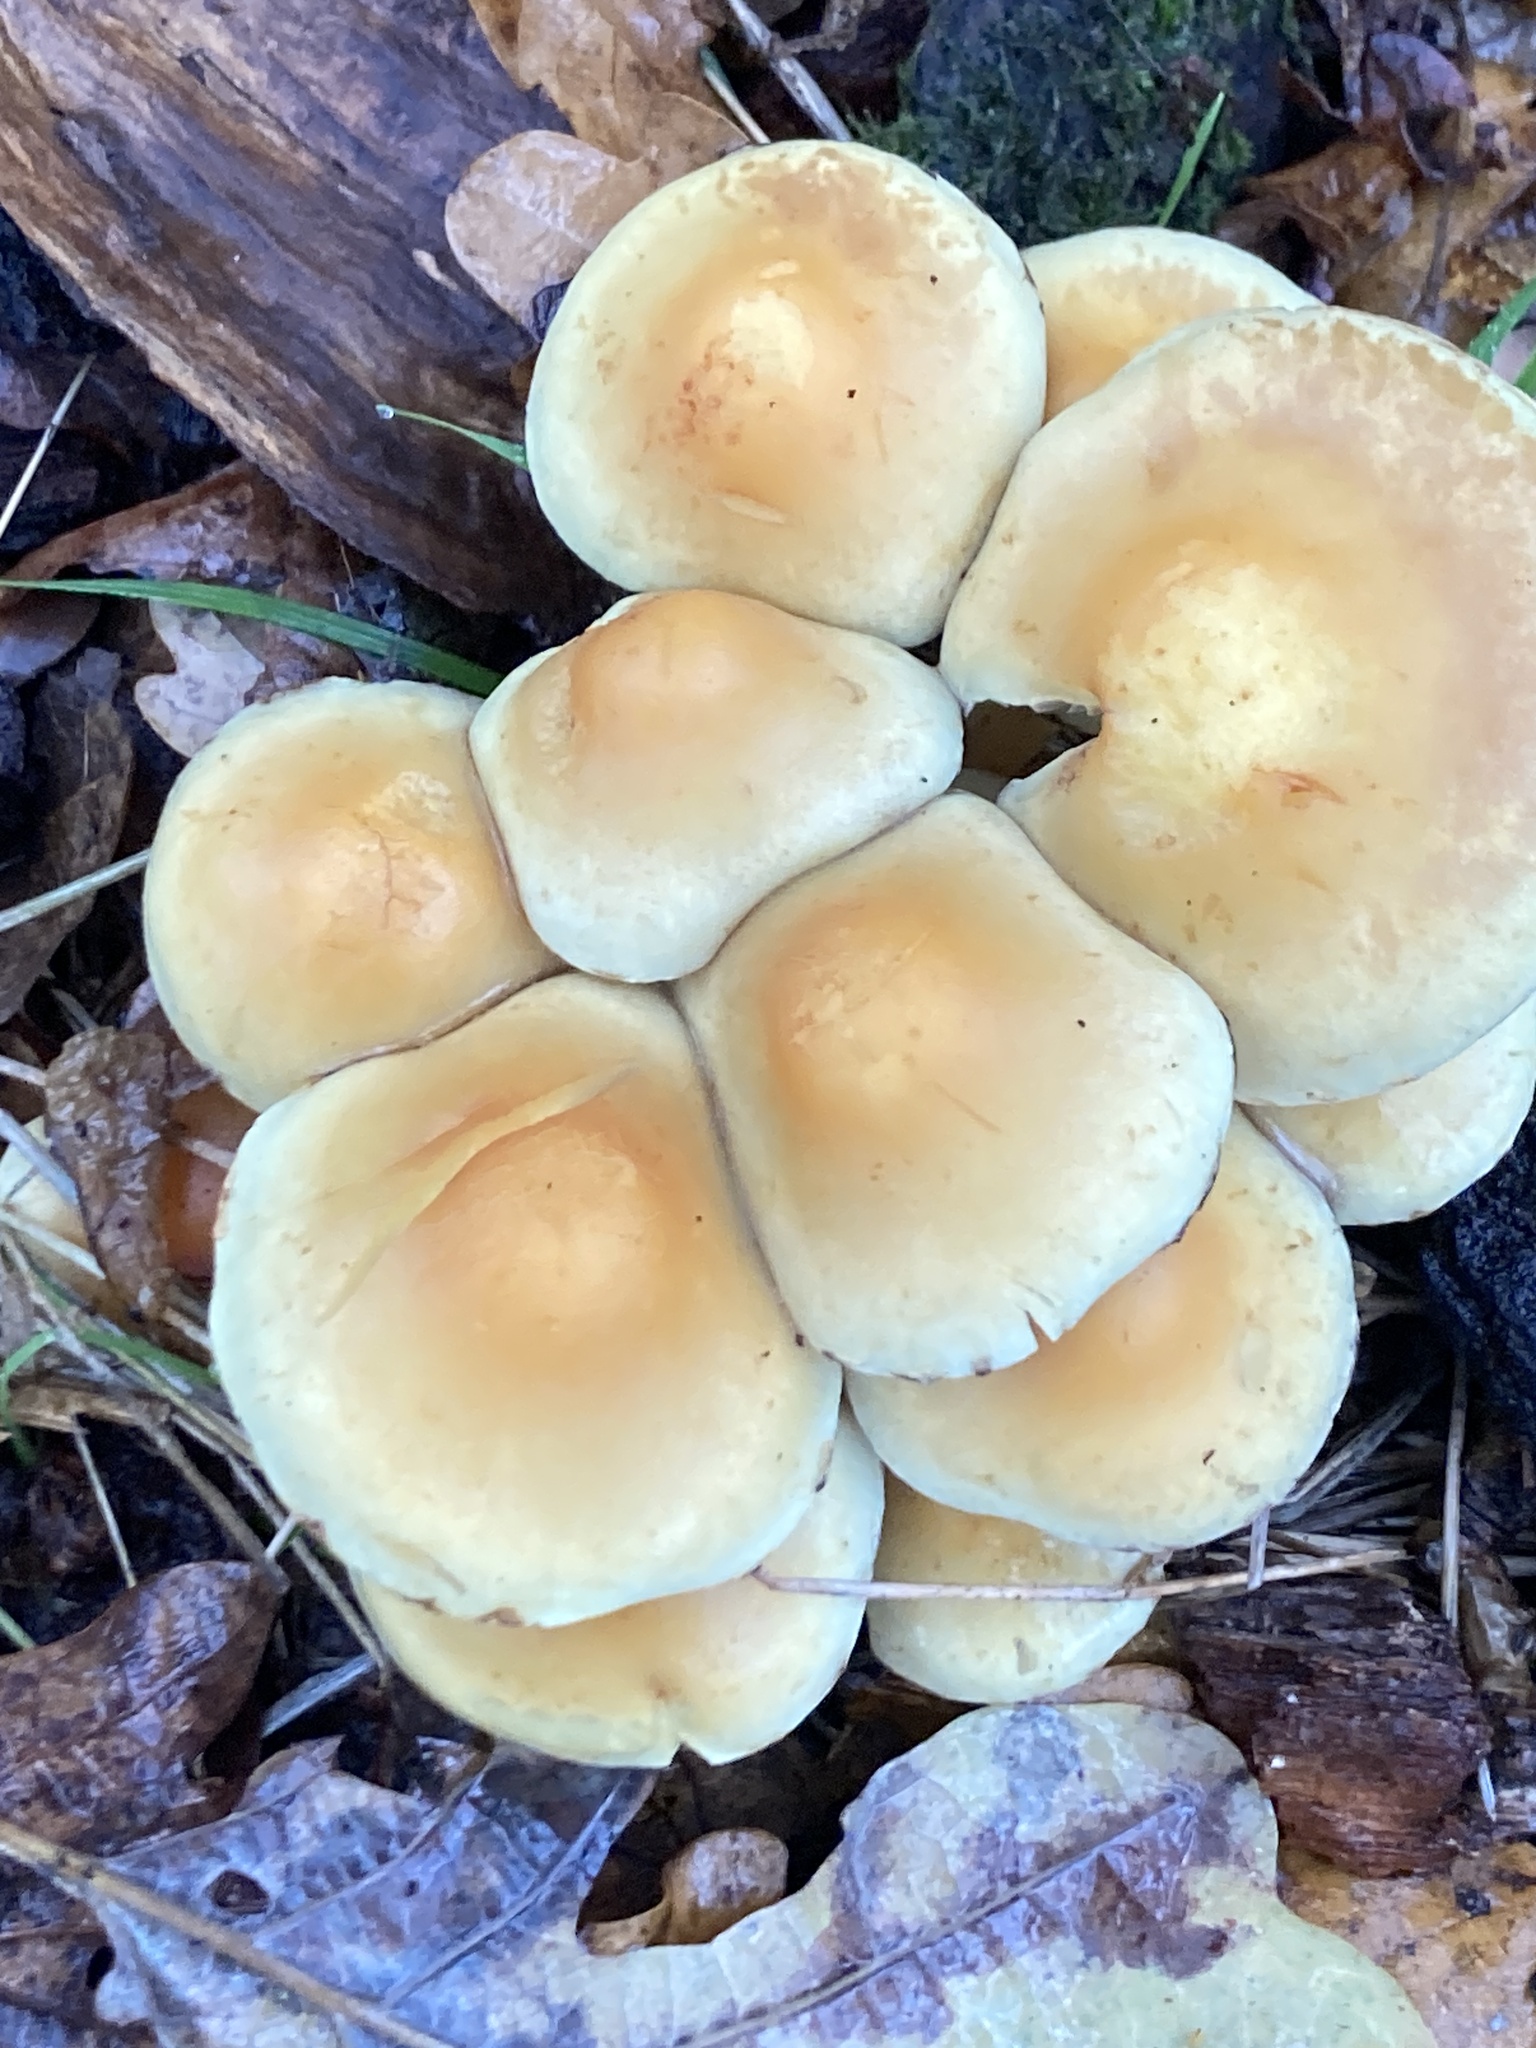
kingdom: Fungi
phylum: Basidiomycota
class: Agaricomycetes
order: Agaricales
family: Strophariaceae
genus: Hypholoma
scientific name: Hypholoma fasciculare
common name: Sulphur tuft
